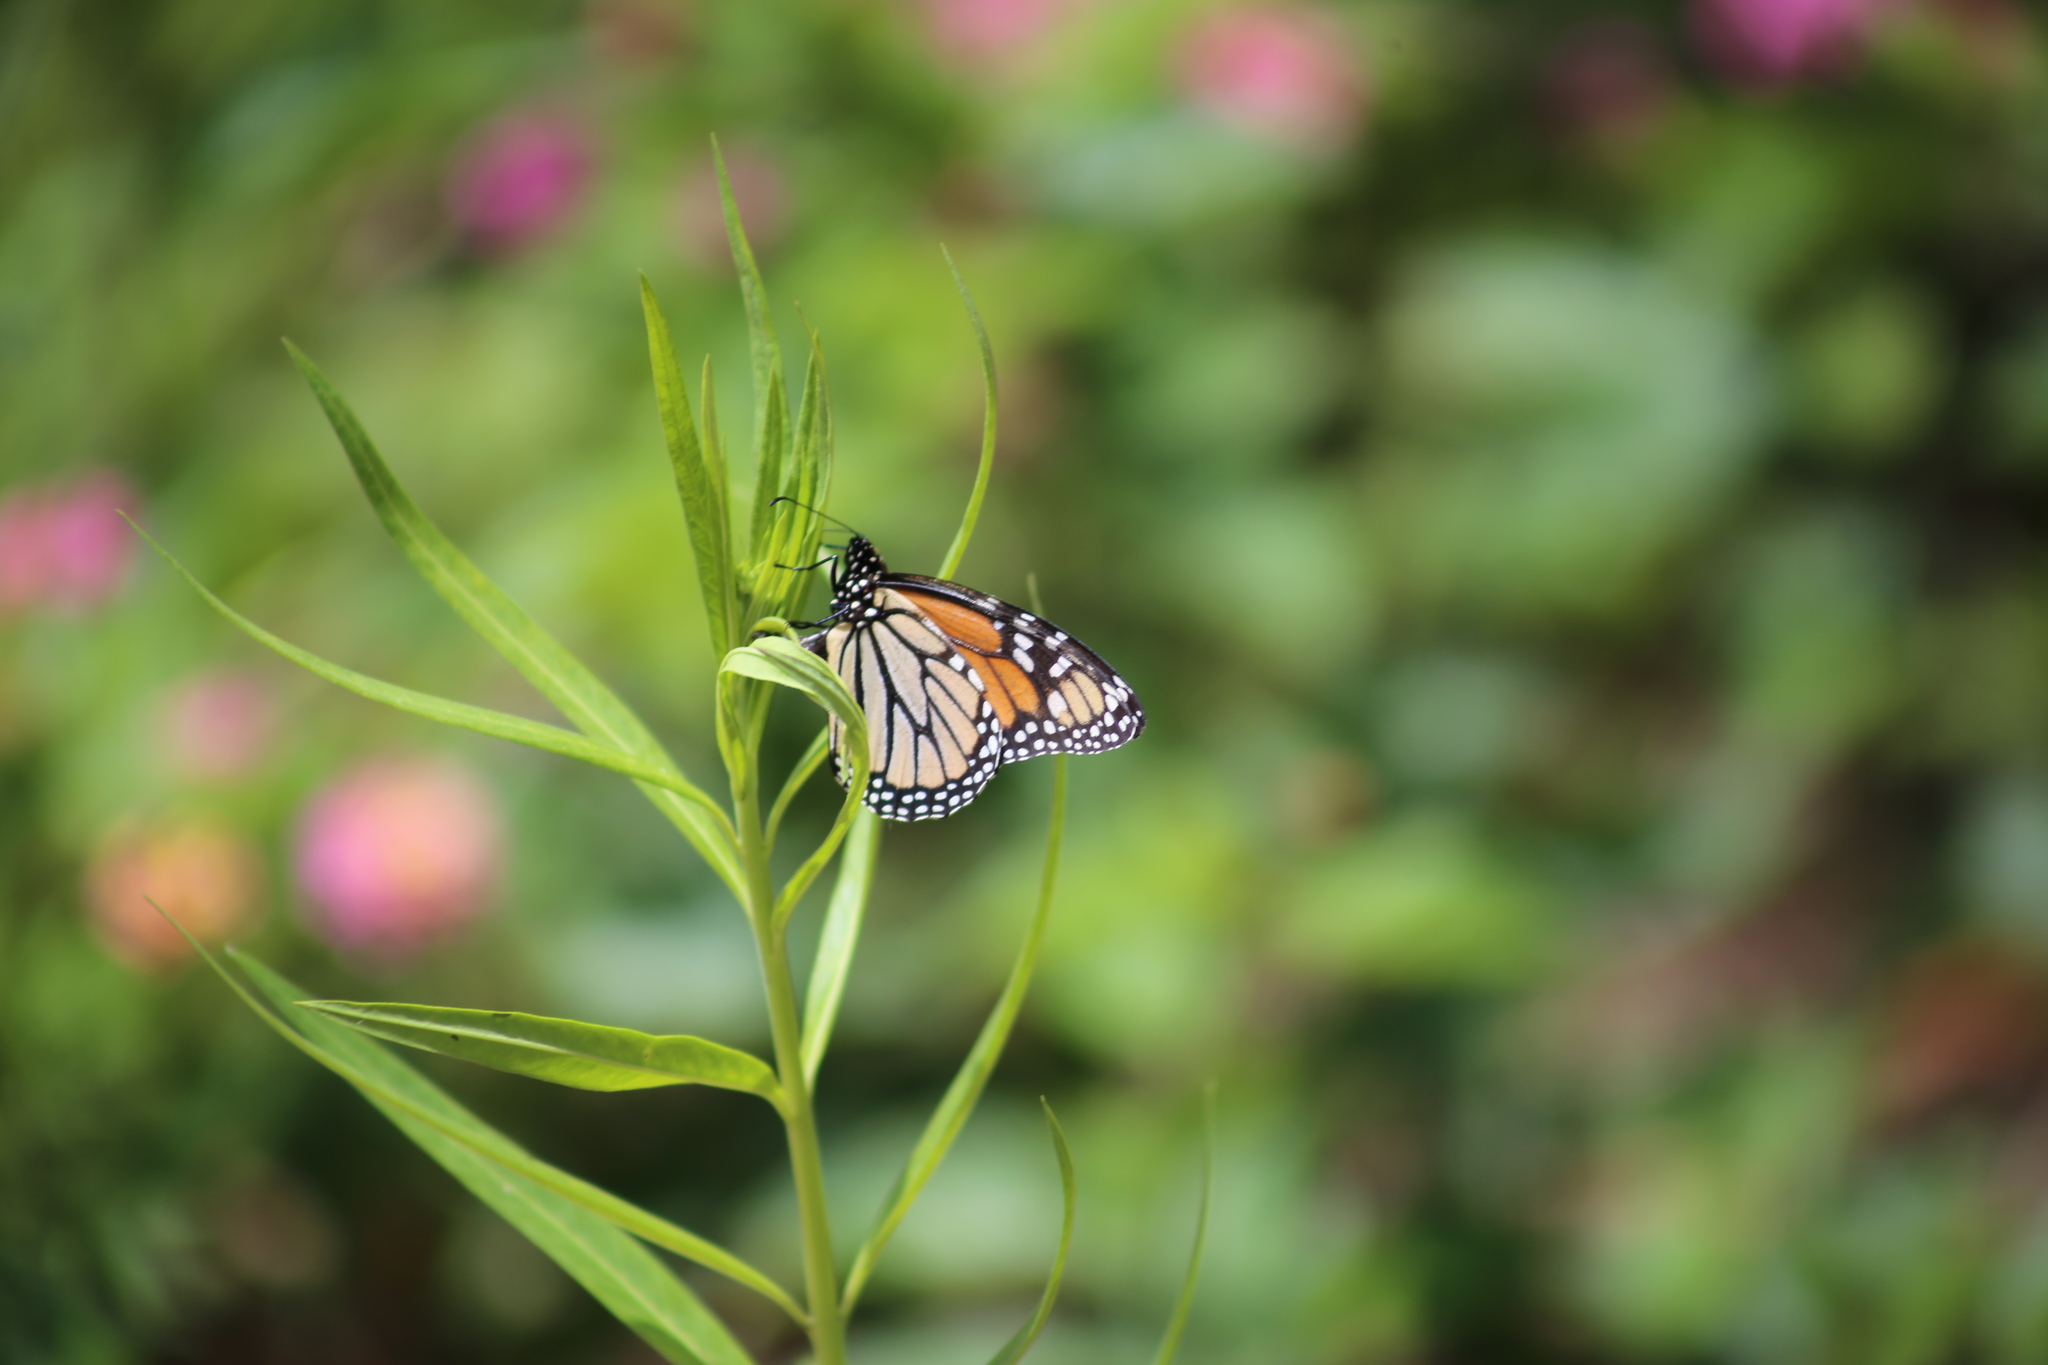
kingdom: Animalia
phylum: Arthropoda
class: Insecta
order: Lepidoptera
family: Nymphalidae
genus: Danaus
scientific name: Danaus plexippus
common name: Monarch
